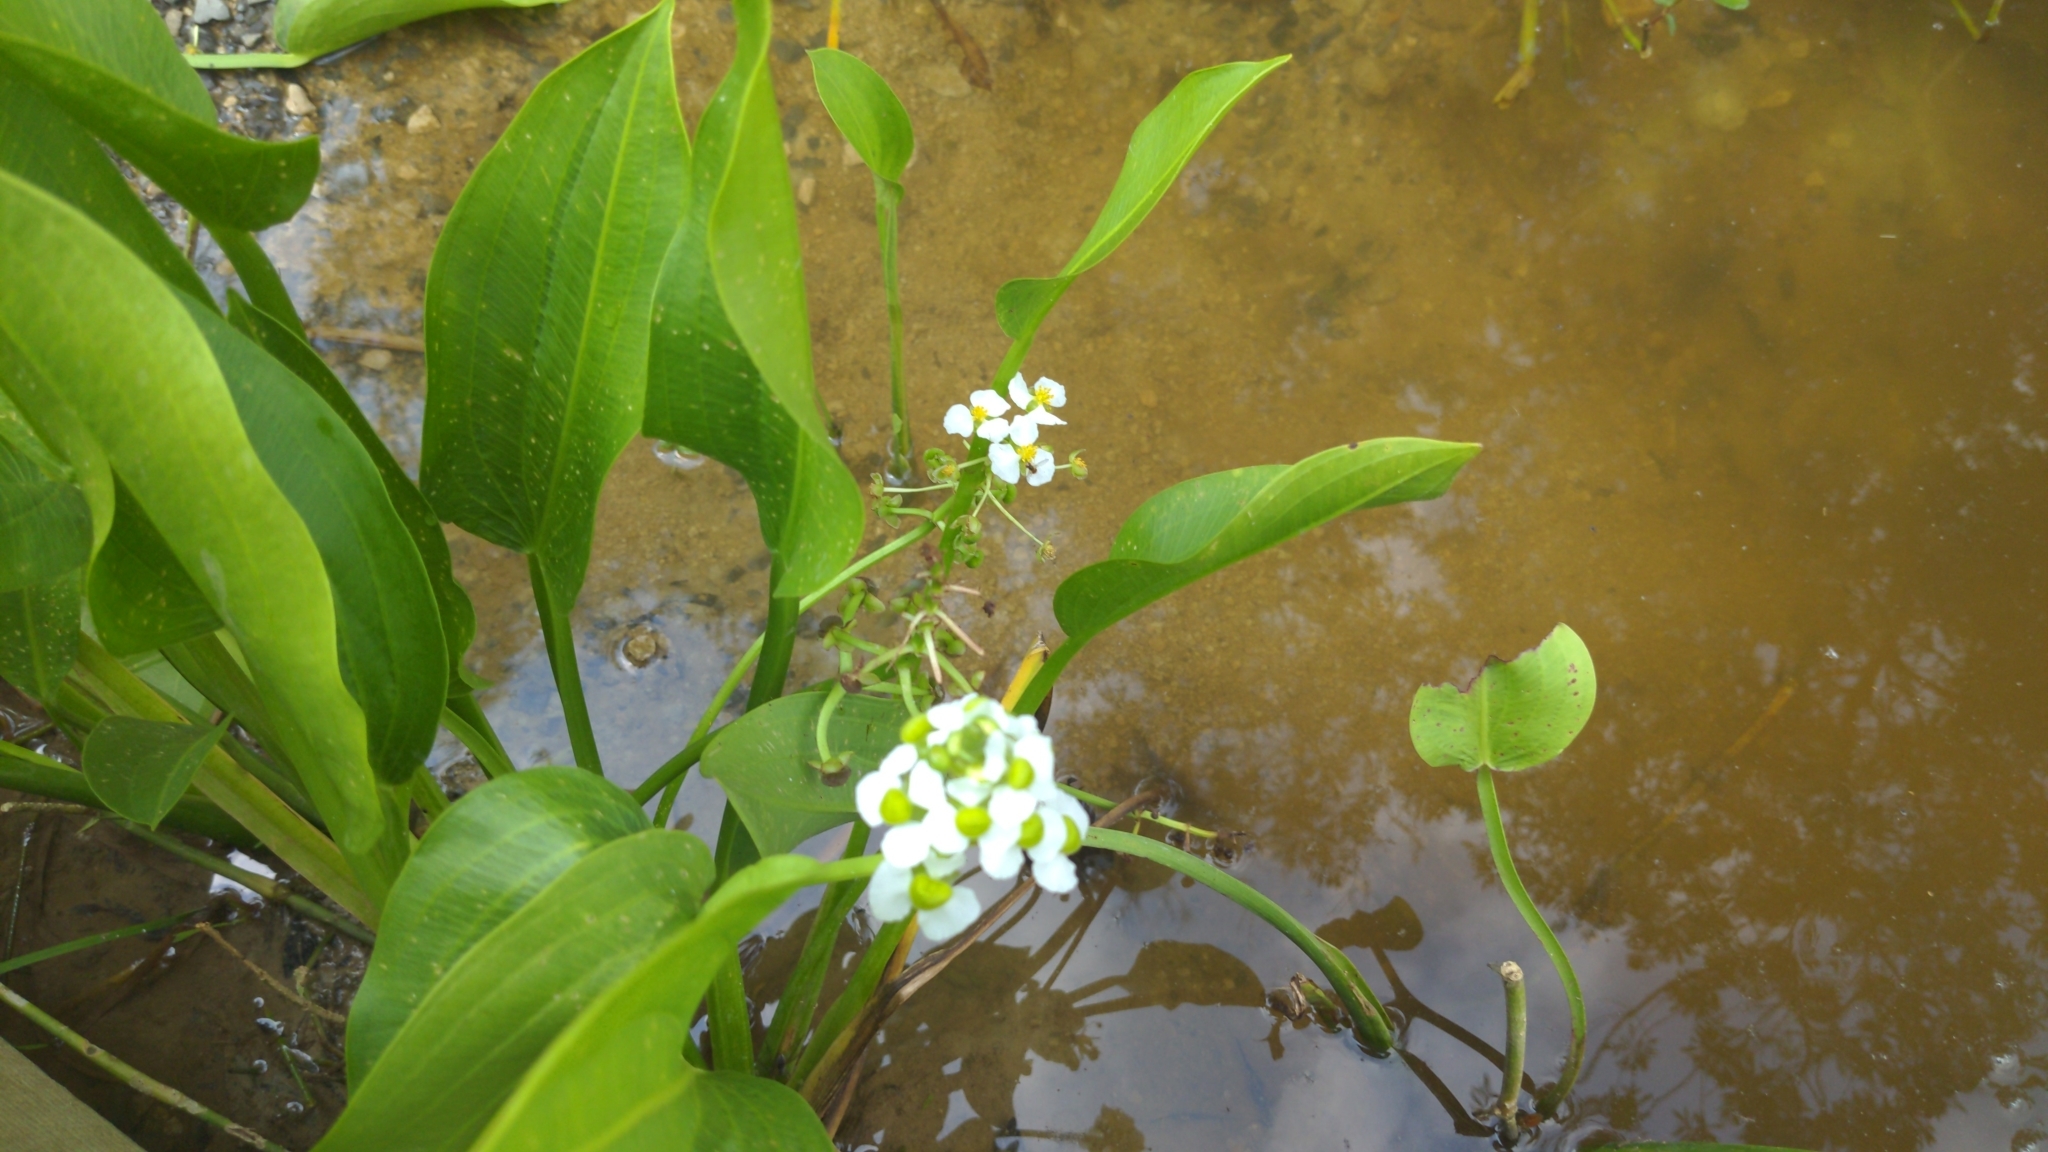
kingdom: Plantae
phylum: Tracheophyta
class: Liliopsida
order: Alismatales
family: Alismataceae
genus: Sagittaria
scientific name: Sagittaria platyphylla
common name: Broad-leaf arrowhead
